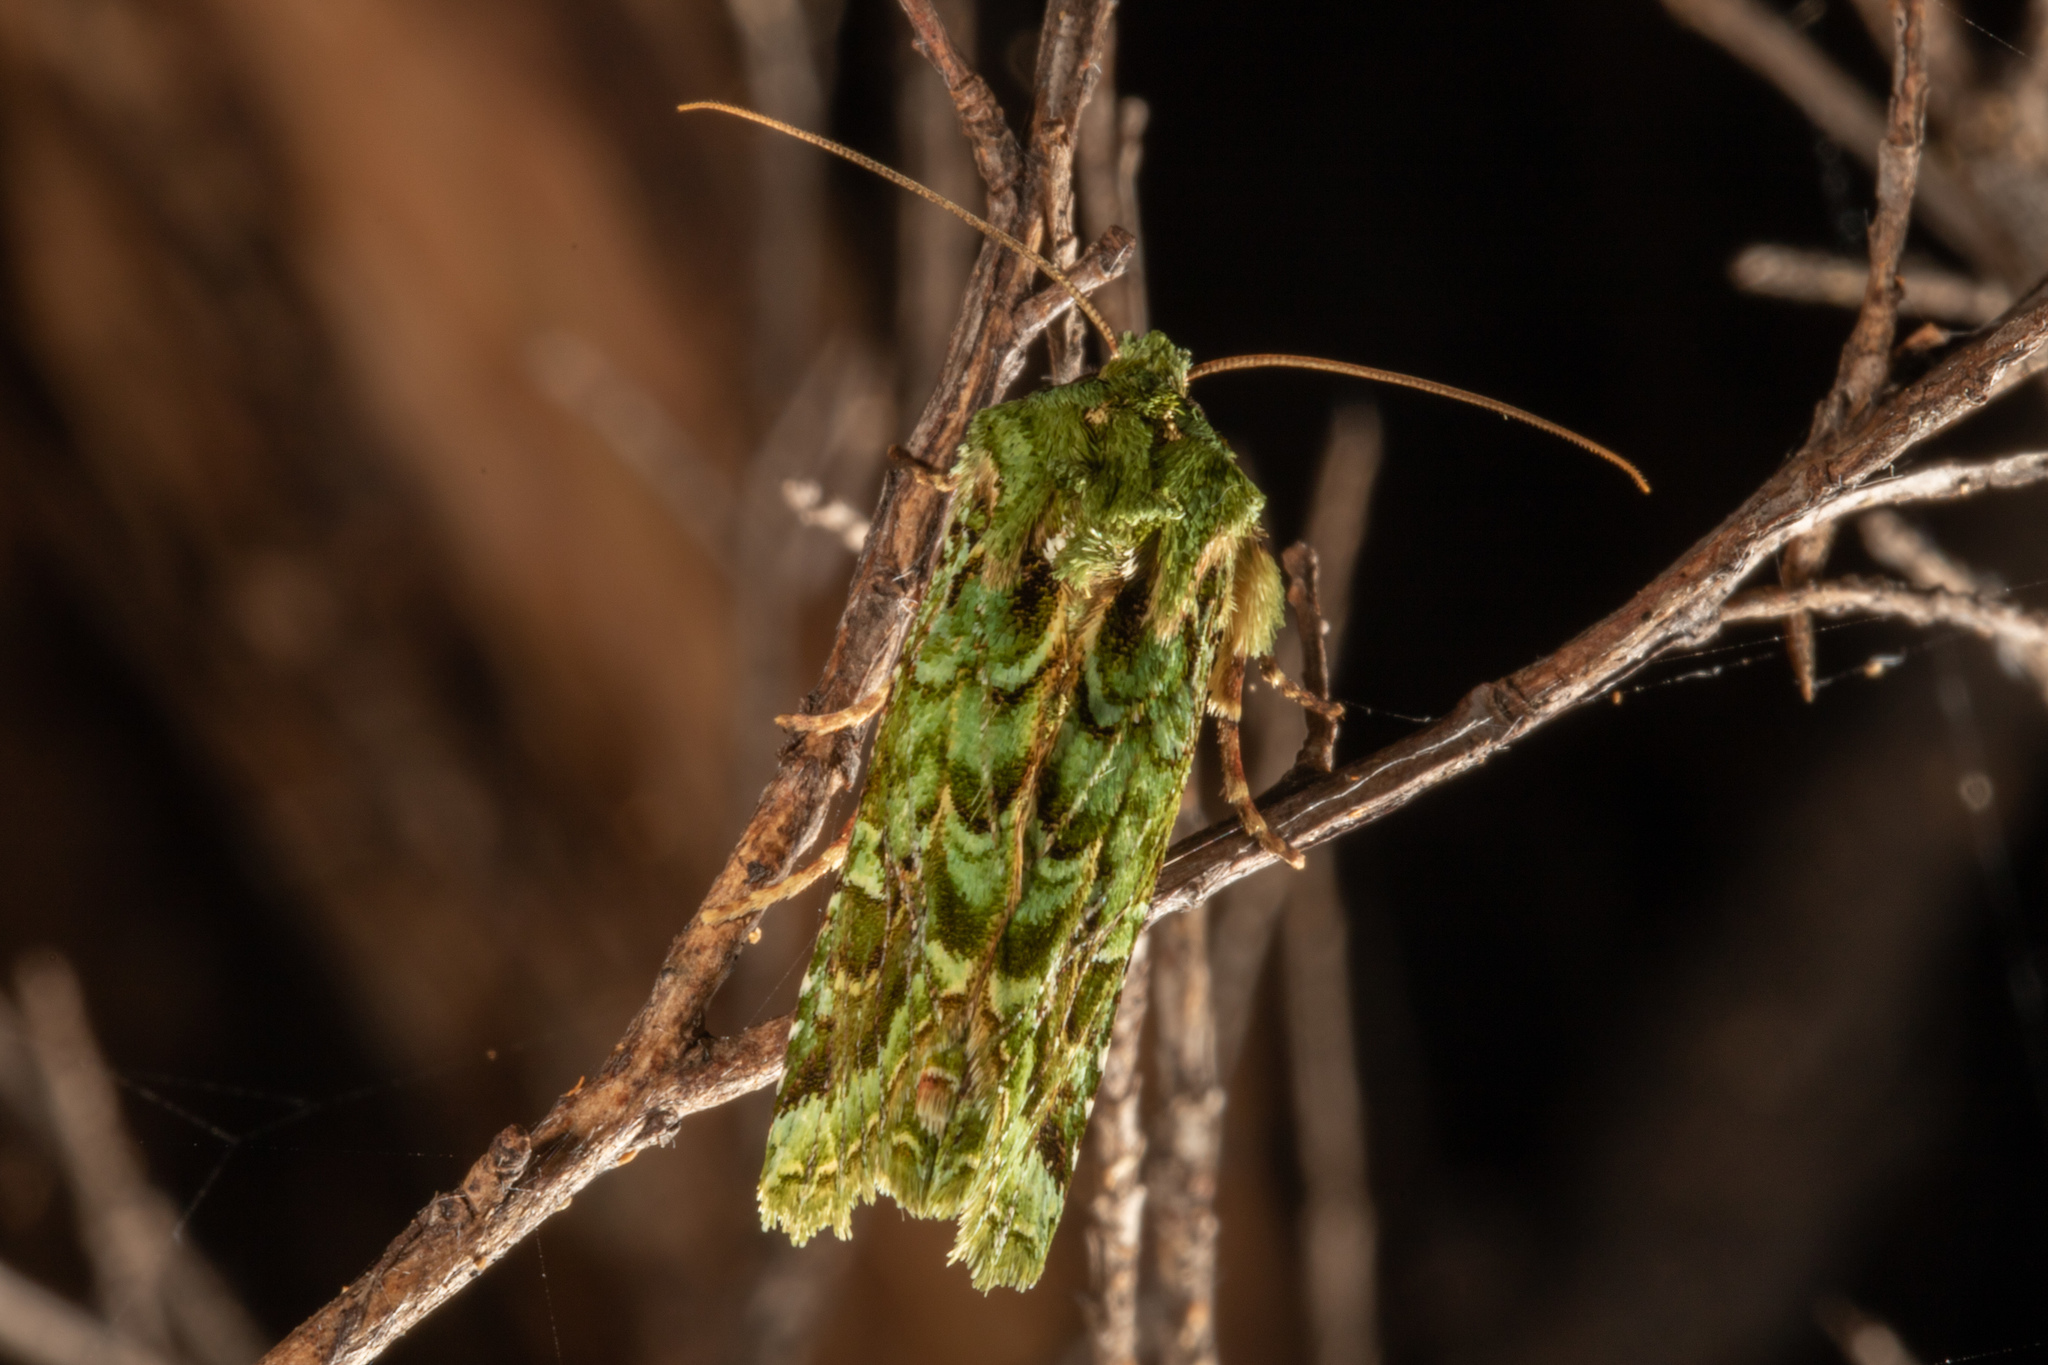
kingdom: Animalia
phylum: Arthropoda
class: Insecta
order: Lepidoptera
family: Noctuidae
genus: Feredayia
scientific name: Feredayia grammosa
